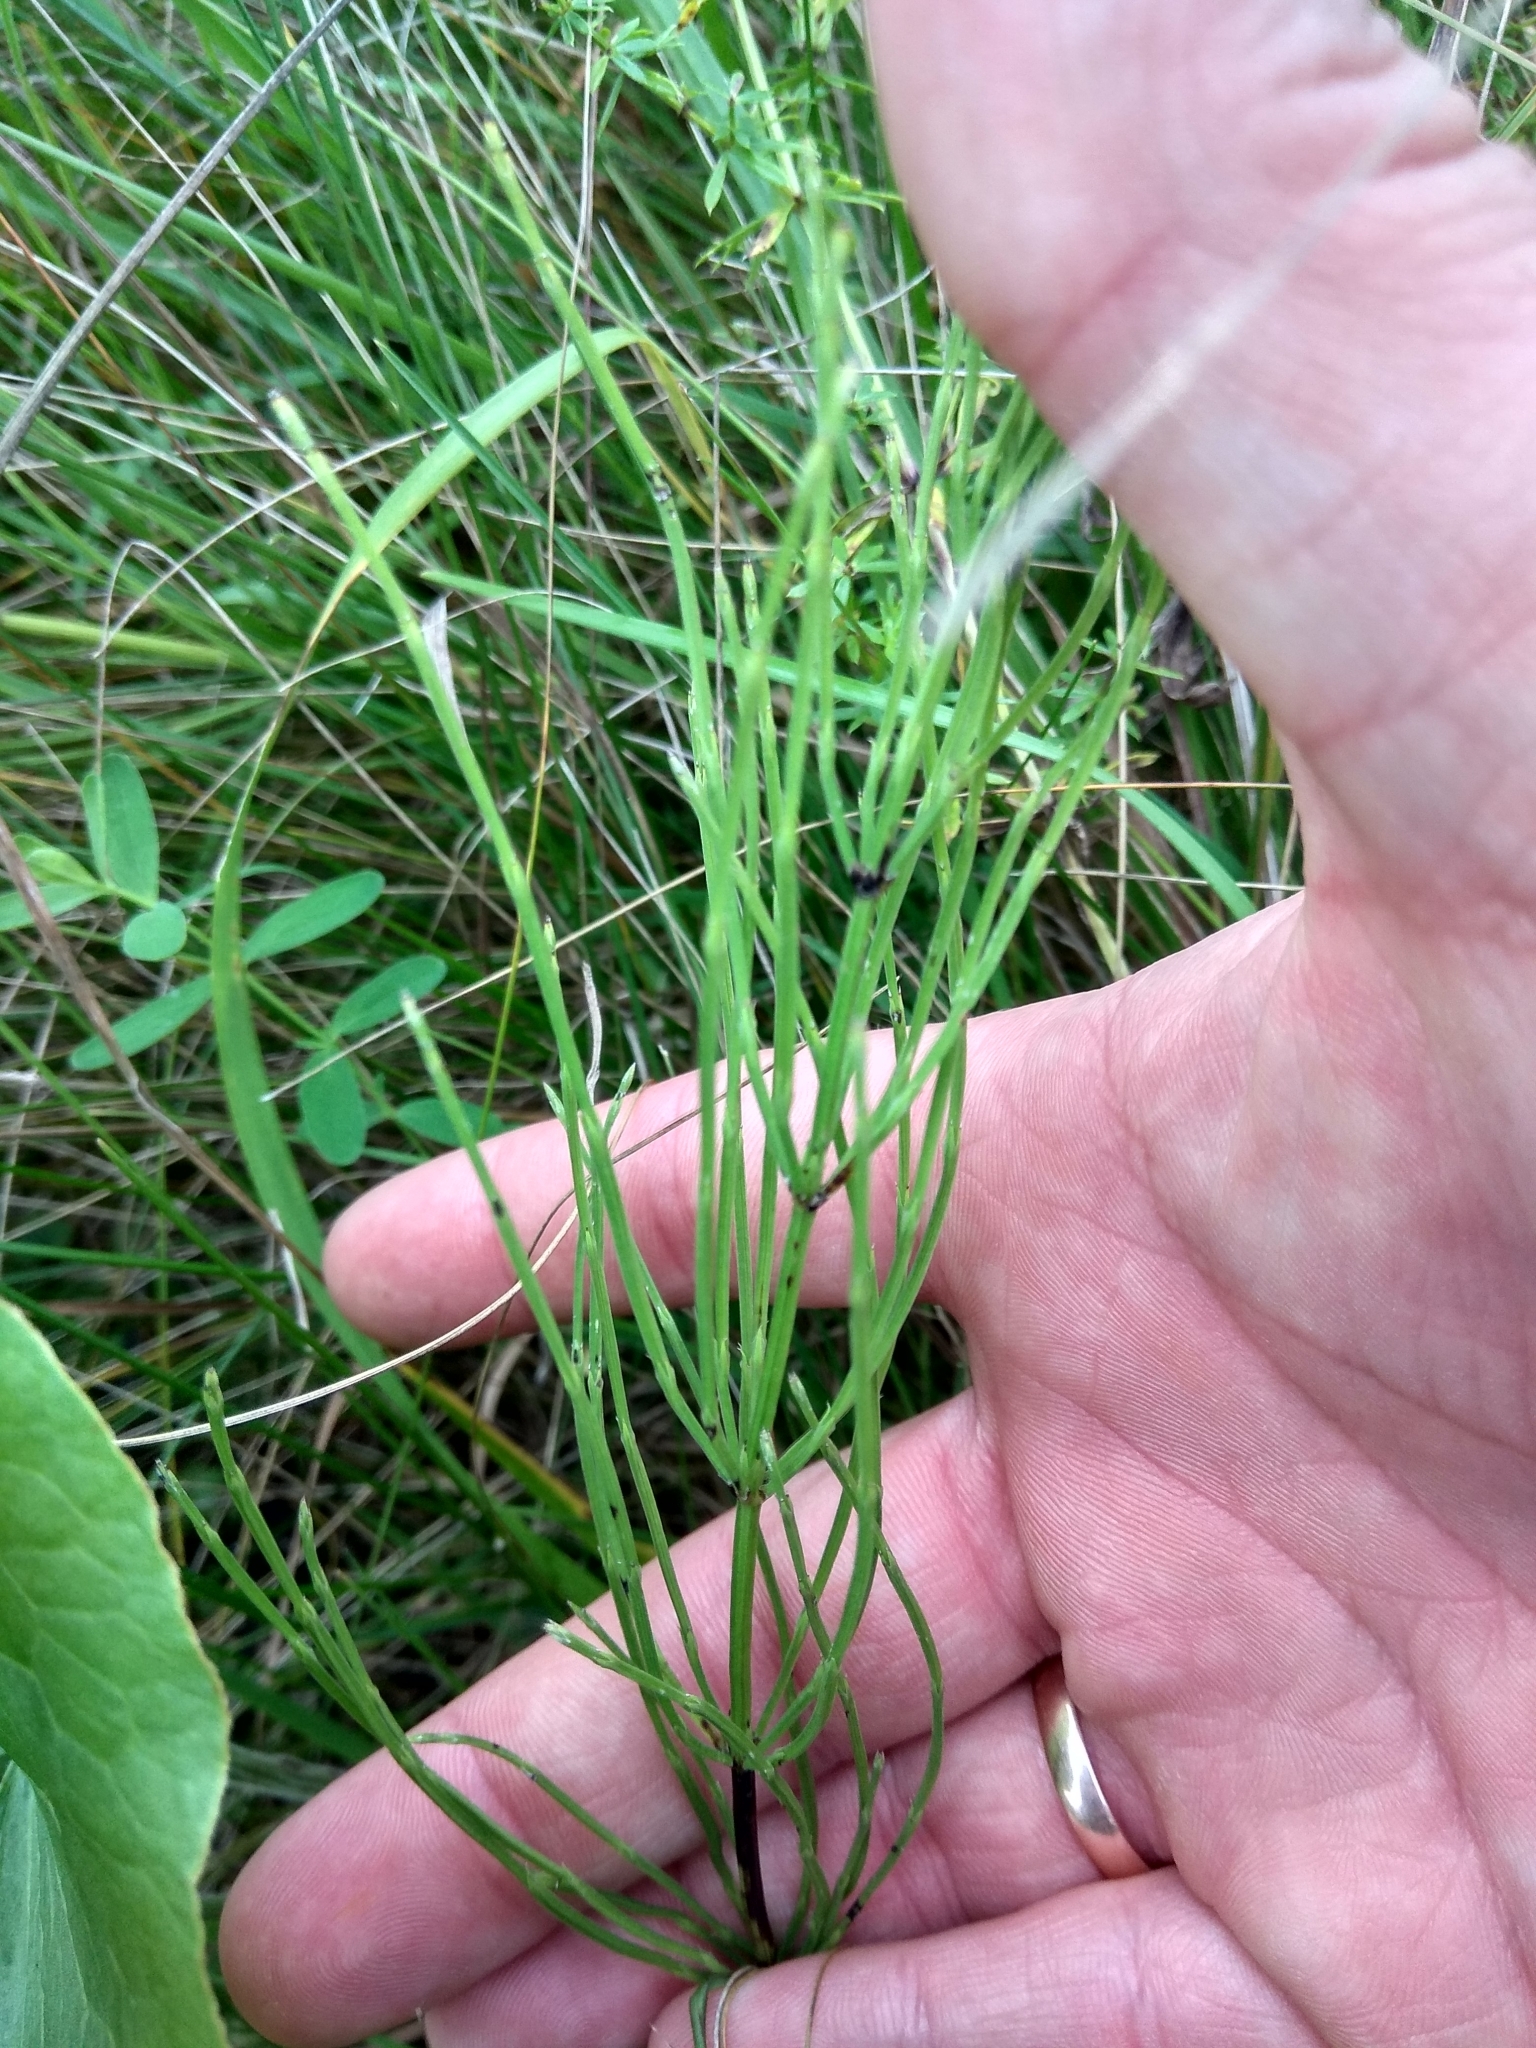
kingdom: Plantae
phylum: Tracheophyta
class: Polypodiopsida
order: Equisetales
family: Equisetaceae
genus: Equisetum
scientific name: Equisetum arvense
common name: Field horsetail
